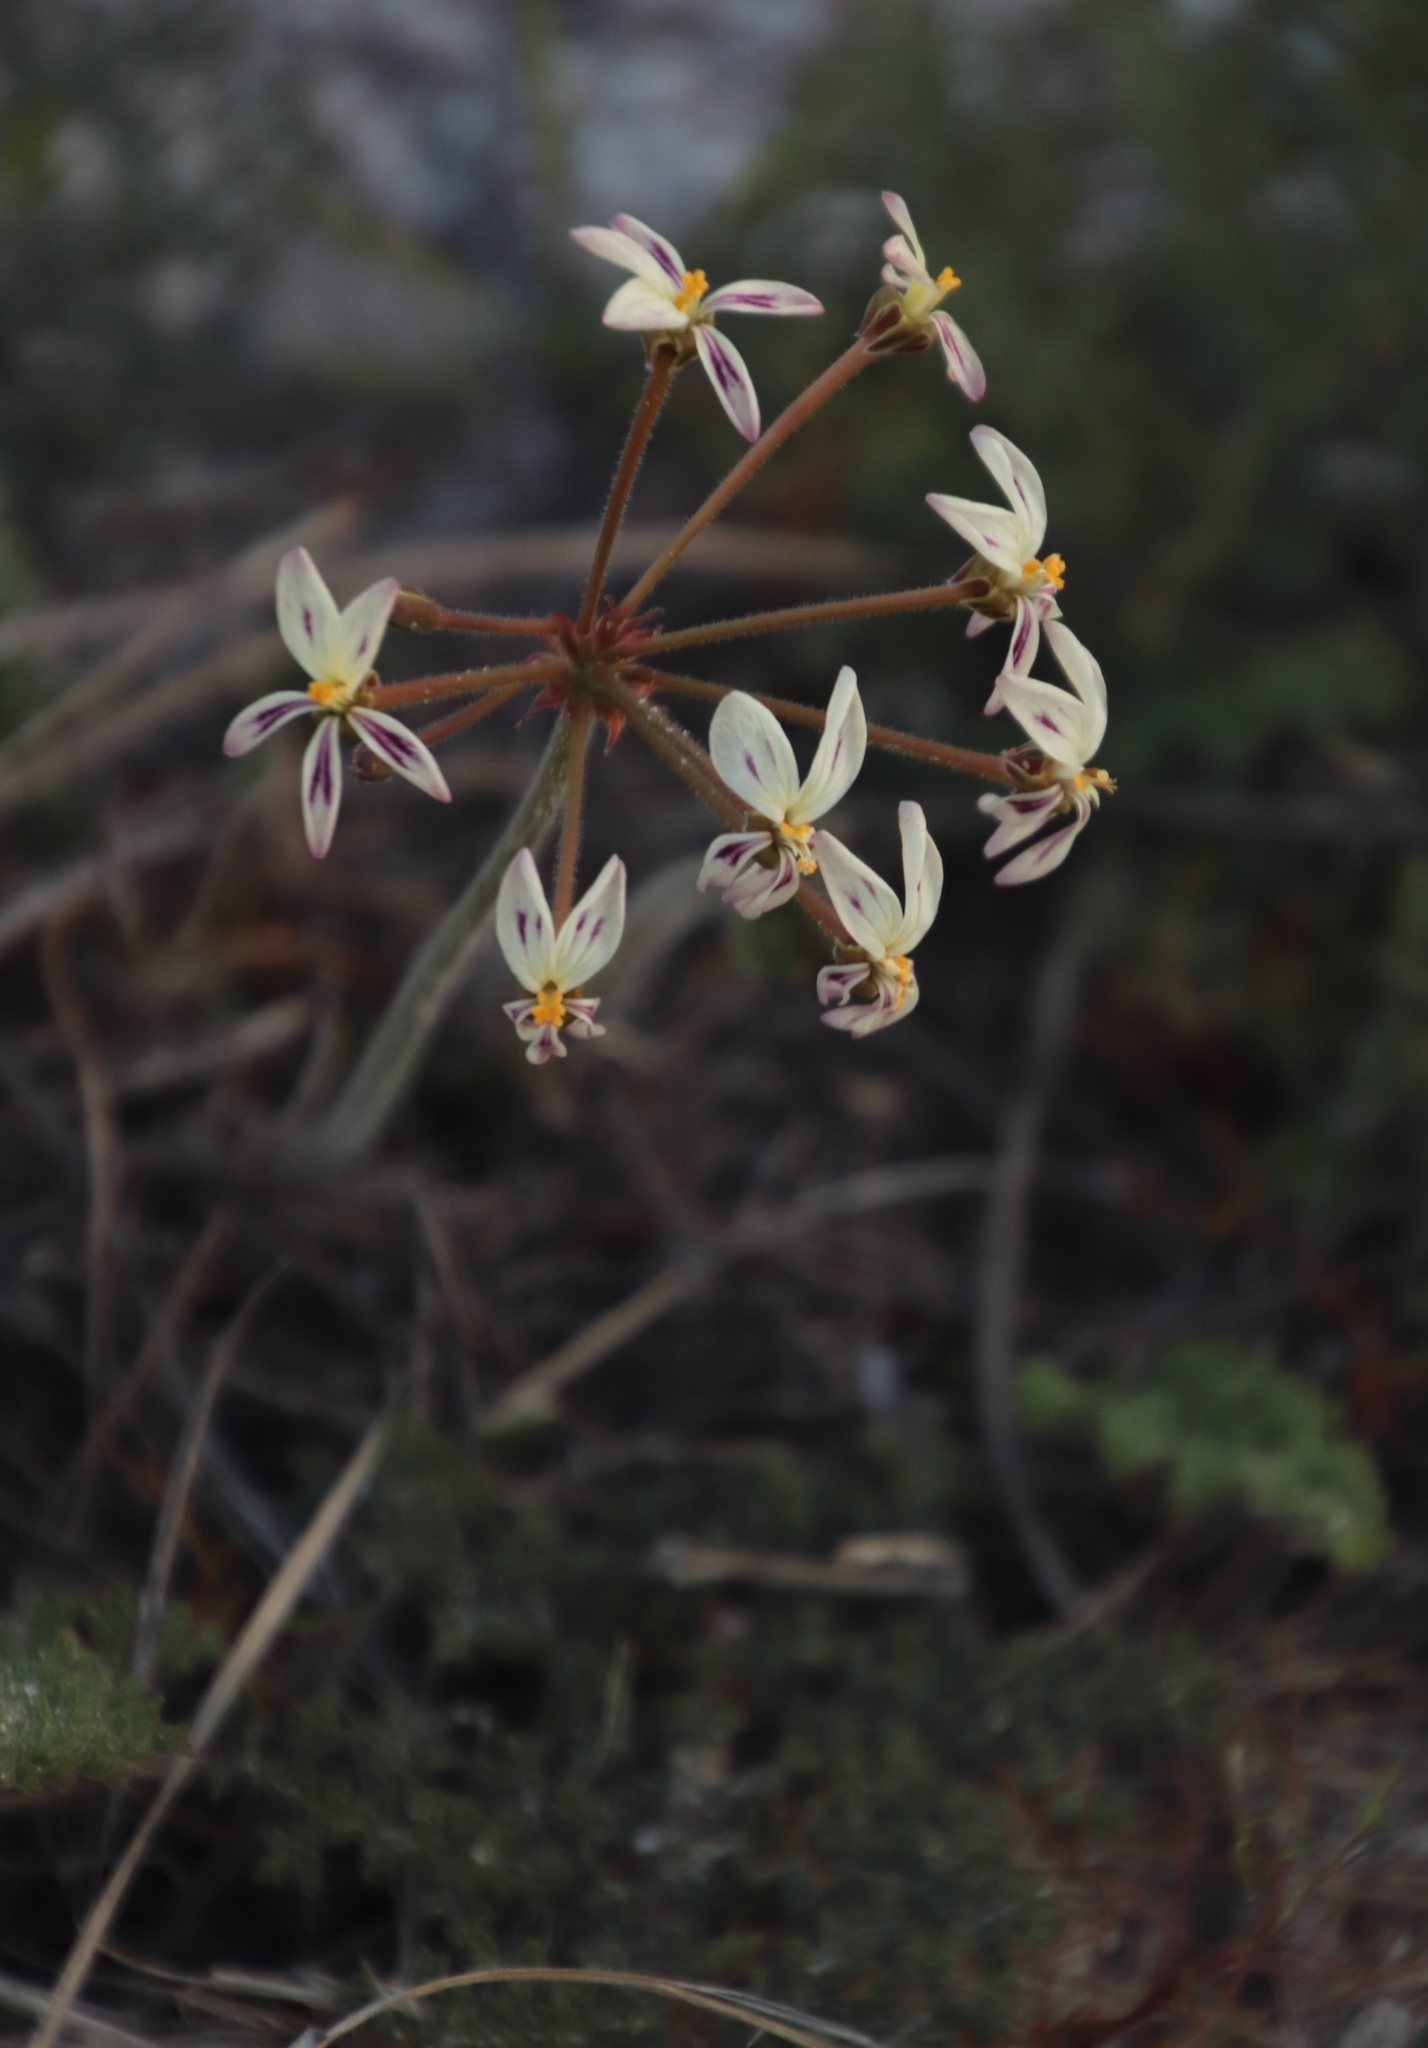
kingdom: Plantae
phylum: Tracheophyta
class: Magnoliopsida
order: Geraniales
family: Geraniaceae
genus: Pelargonium
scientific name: Pelargonium triste
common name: Night-scent pelargonium
